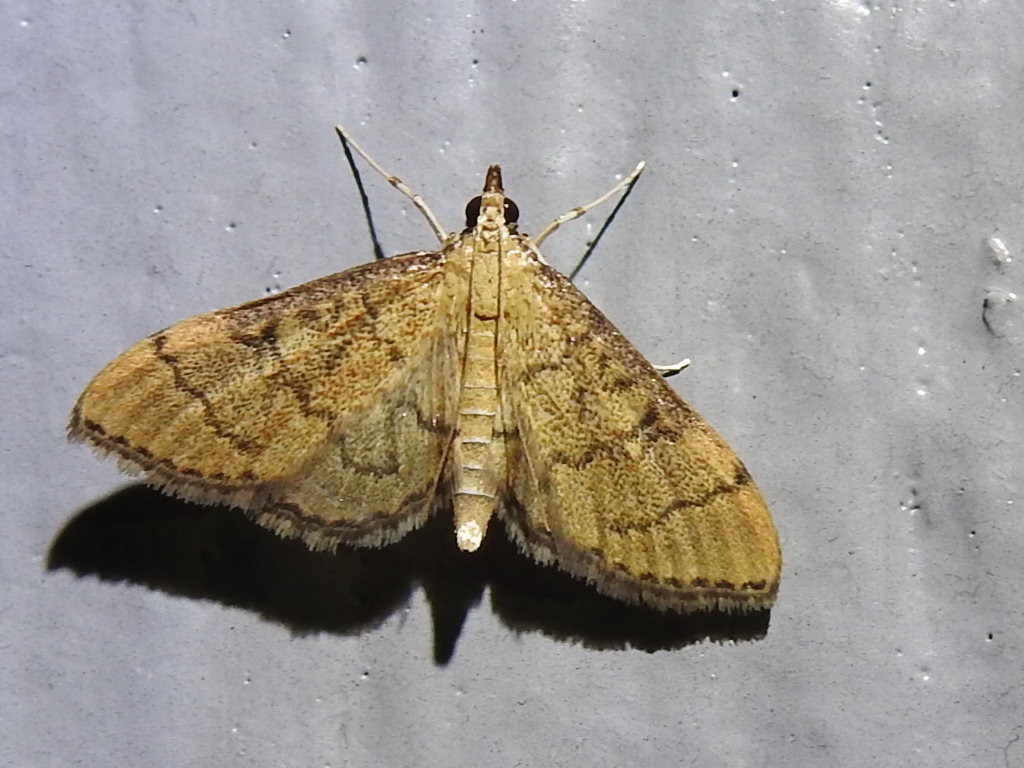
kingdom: Animalia
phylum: Arthropoda
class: Insecta
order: Lepidoptera
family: Crambidae
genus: Lamprosema
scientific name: Lamprosema Blepharomastix ranalis
